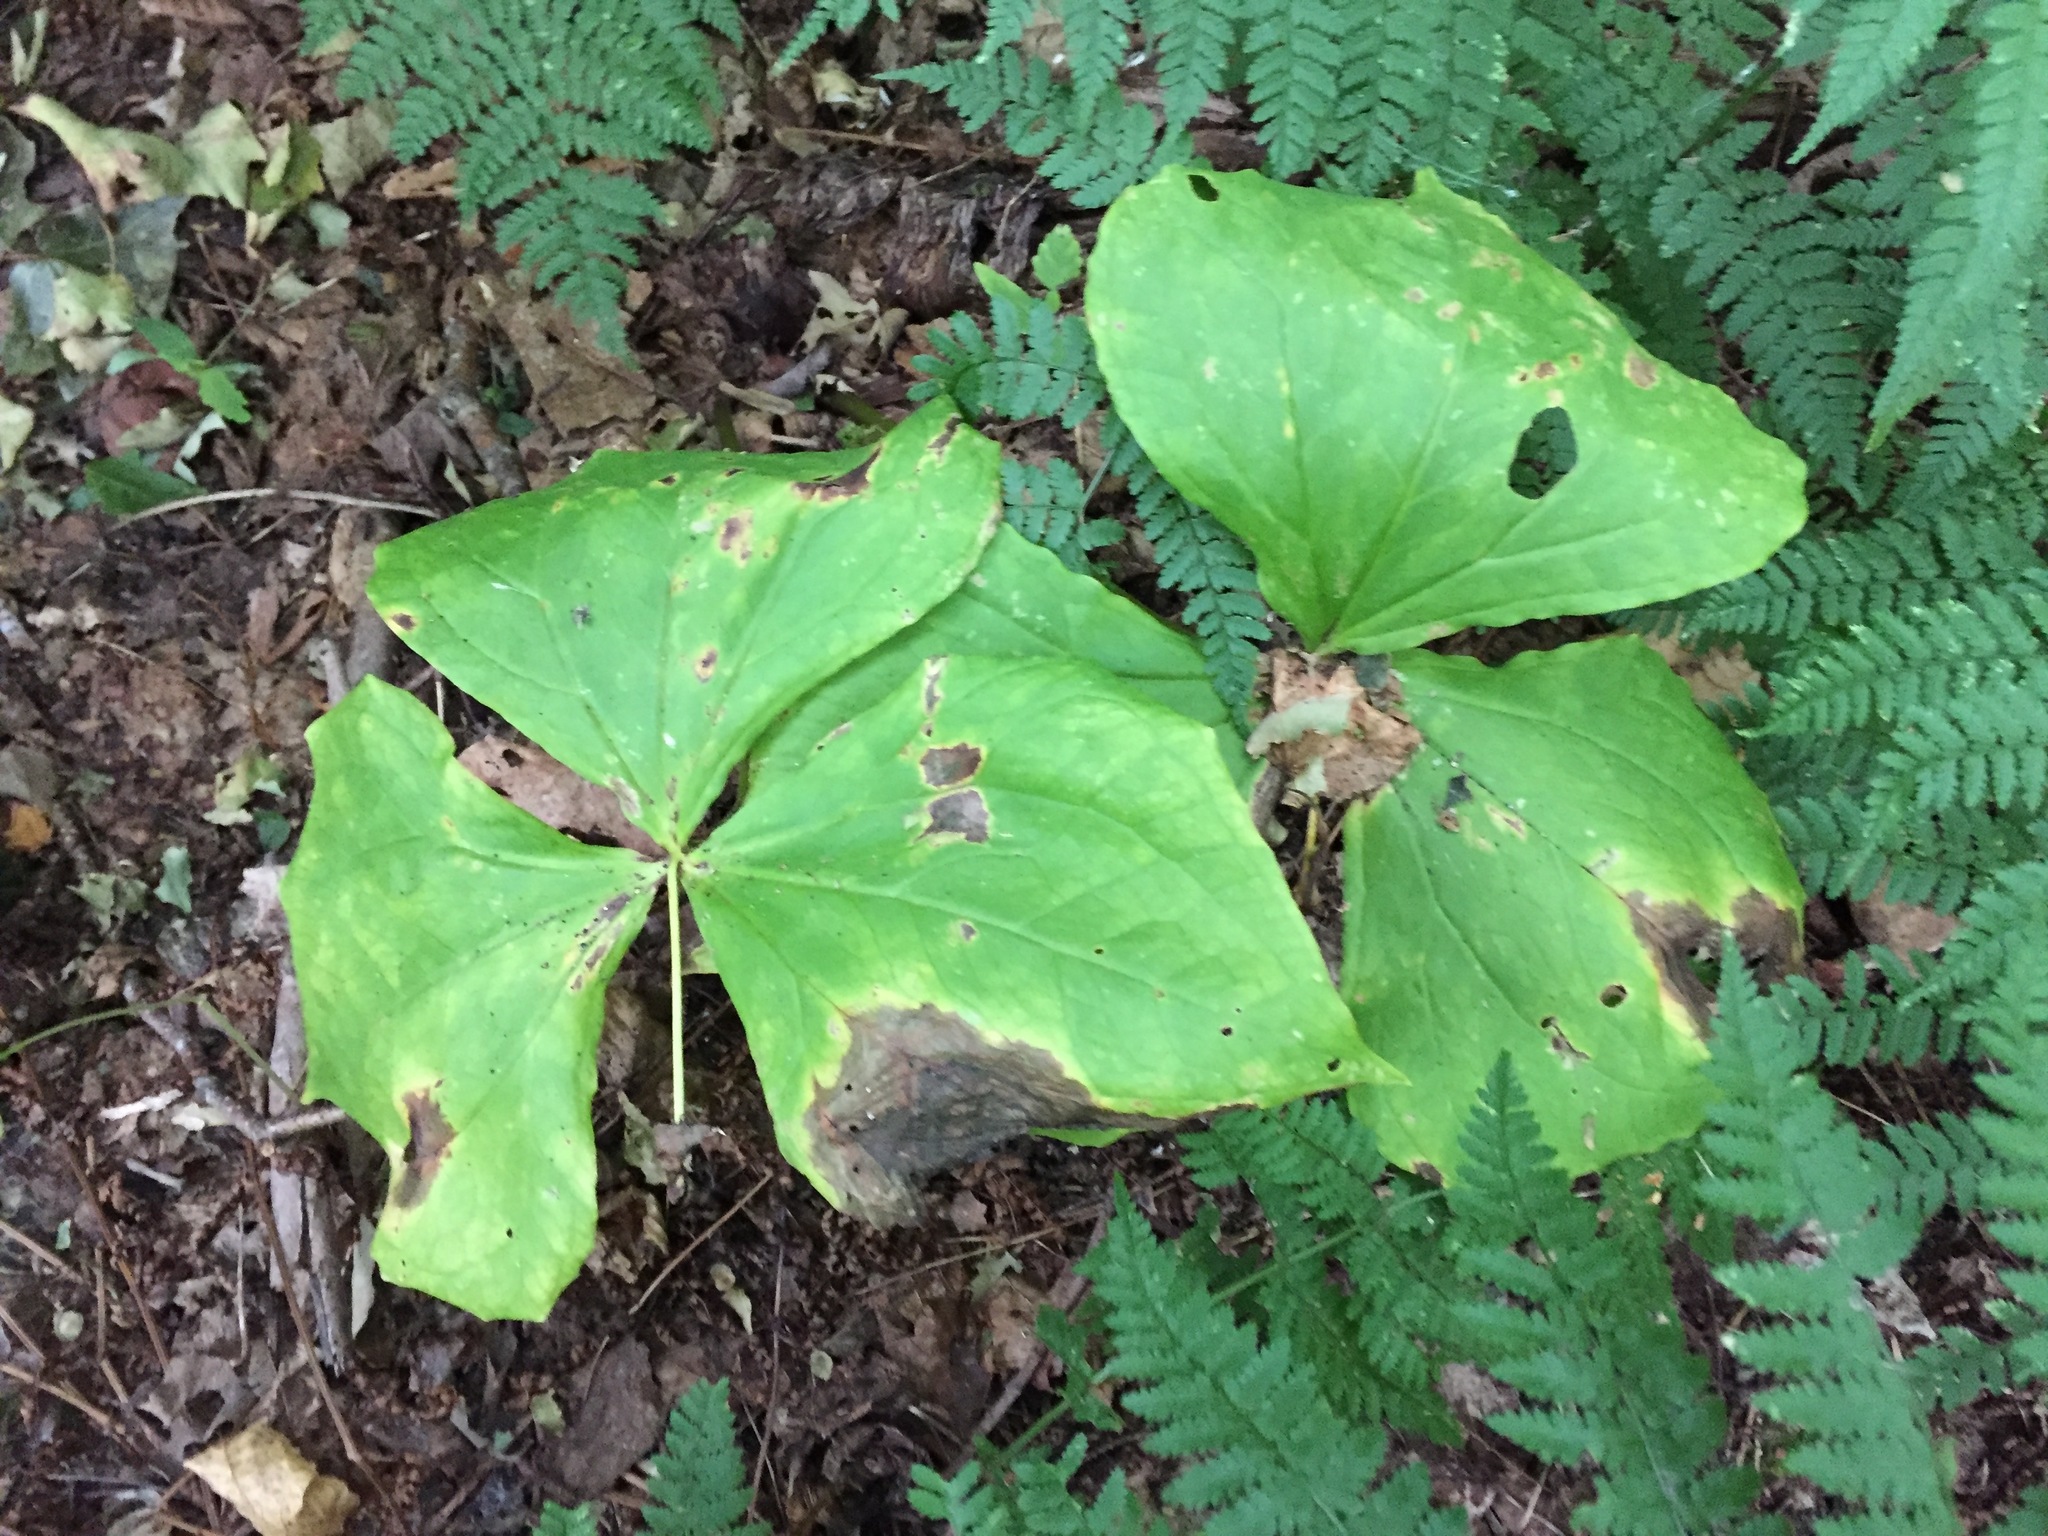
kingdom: Plantae
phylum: Tracheophyta
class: Liliopsida
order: Liliales
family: Melanthiaceae
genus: Trillium
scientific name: Trillium erectum
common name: Purple trillium
